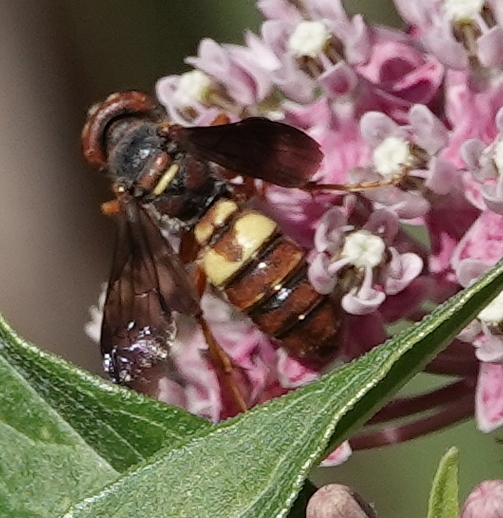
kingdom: Animalia
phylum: Arthropoda
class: Insecta
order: Hymenoptera
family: Crabronidae
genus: Cerceris
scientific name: Cerceris bicornuta
